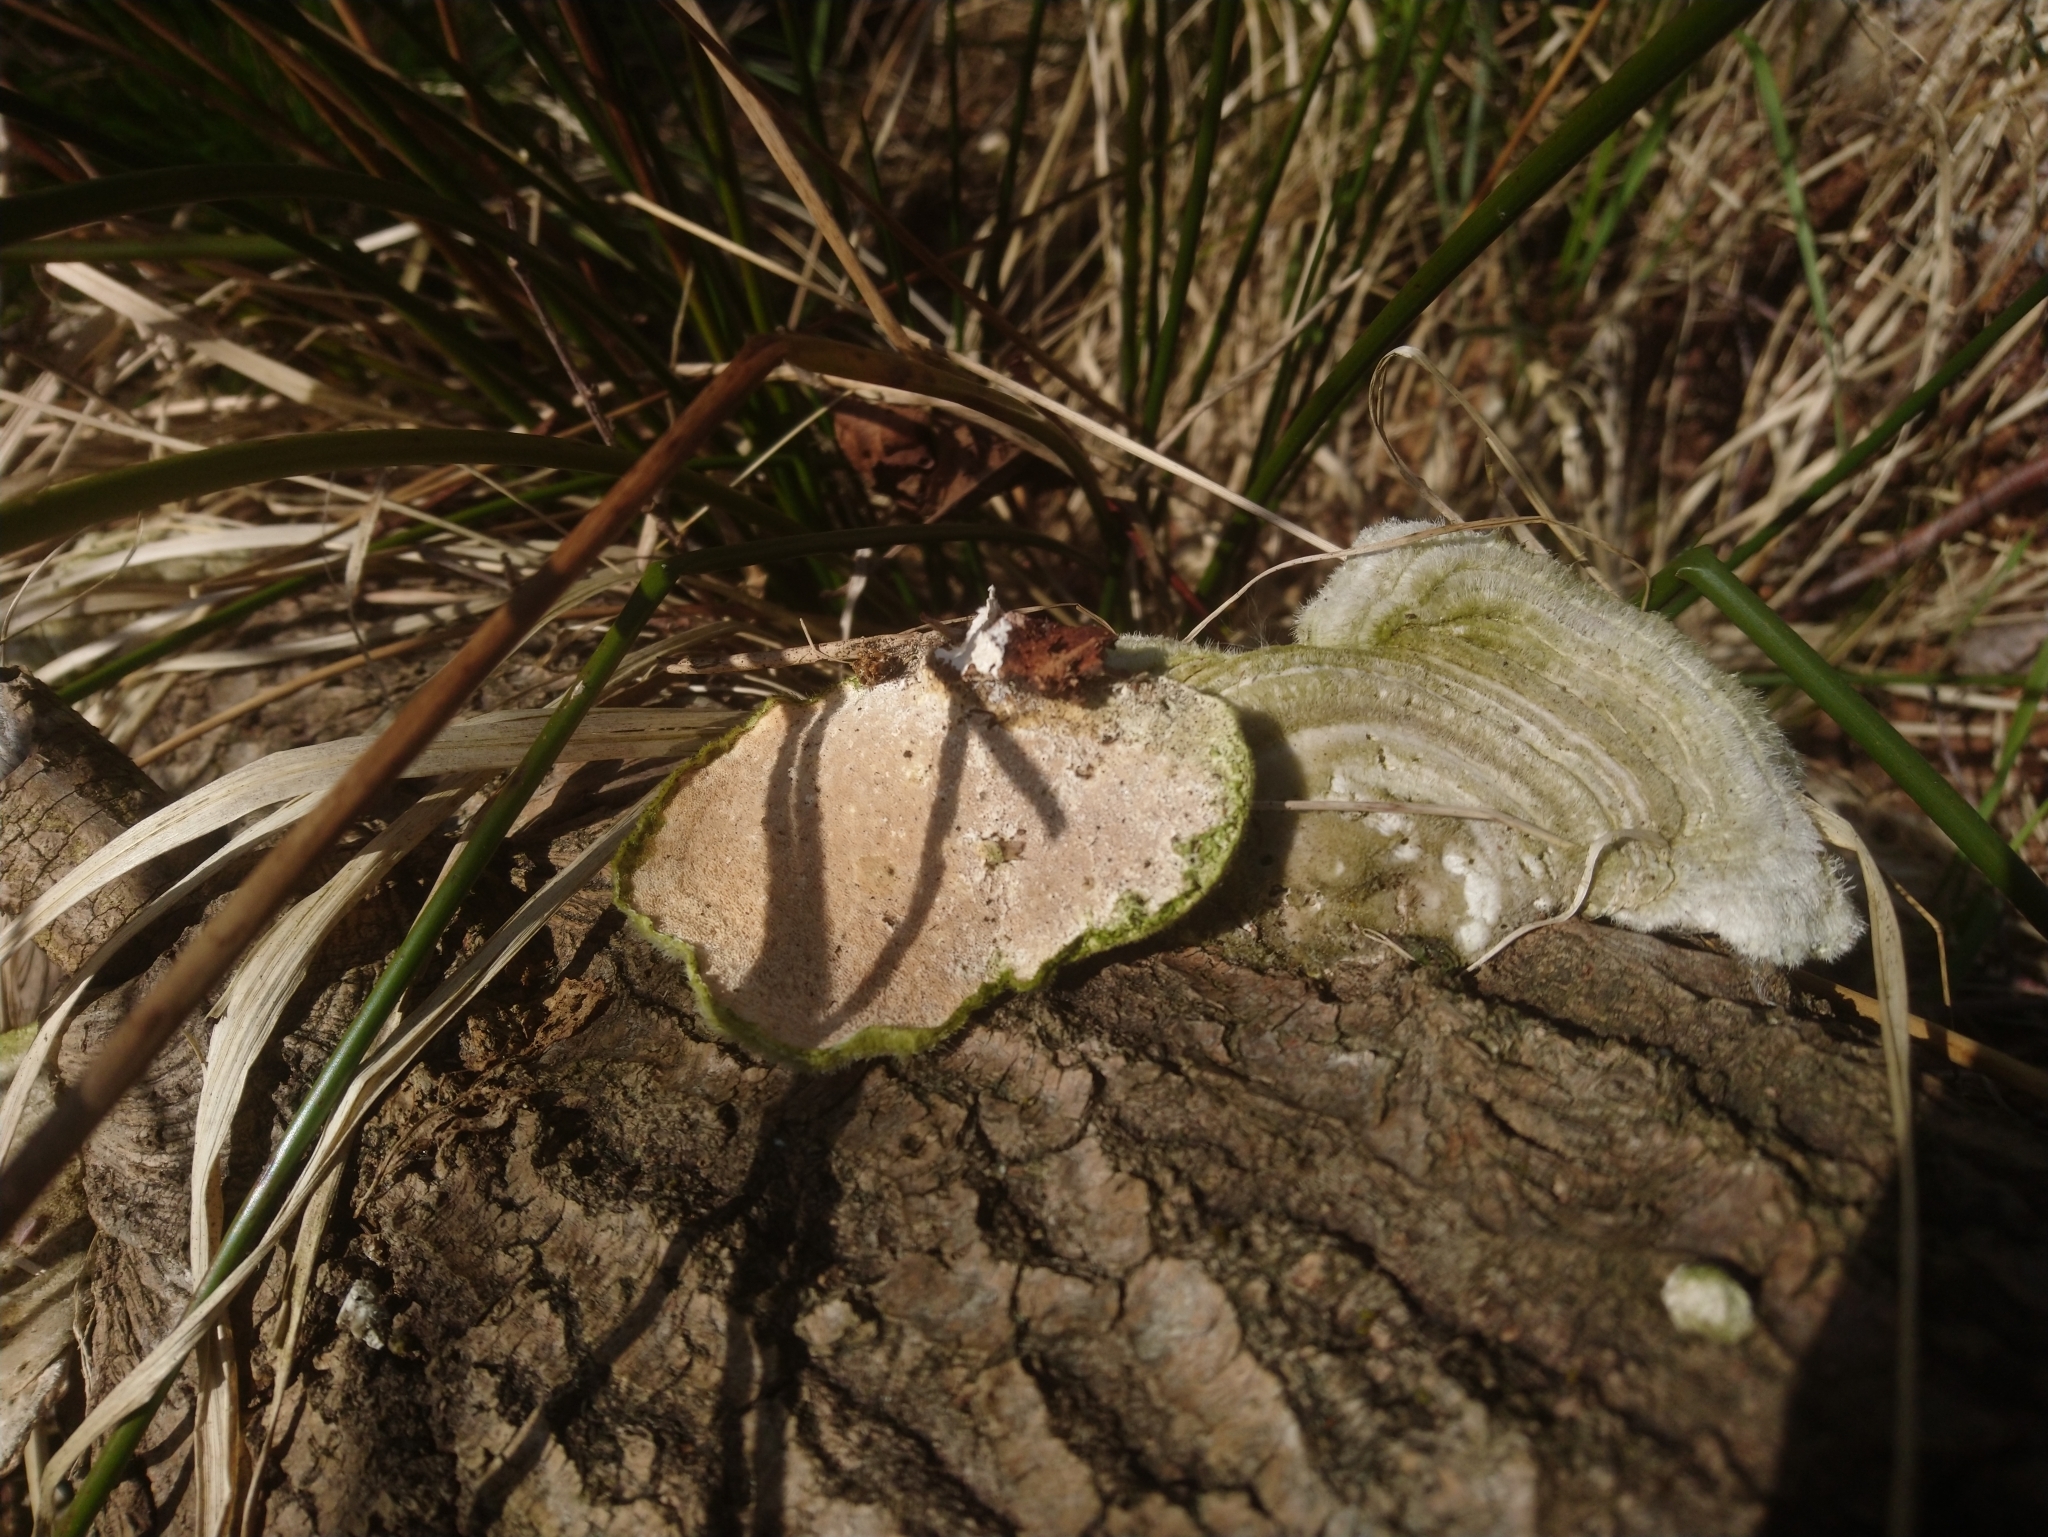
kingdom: Fungi
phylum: Basidiomycota
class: Agaricomycetes
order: Polyporales
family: Polyporaceae
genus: Trametes
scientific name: Trametes hirsuta
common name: Hairy bracket
